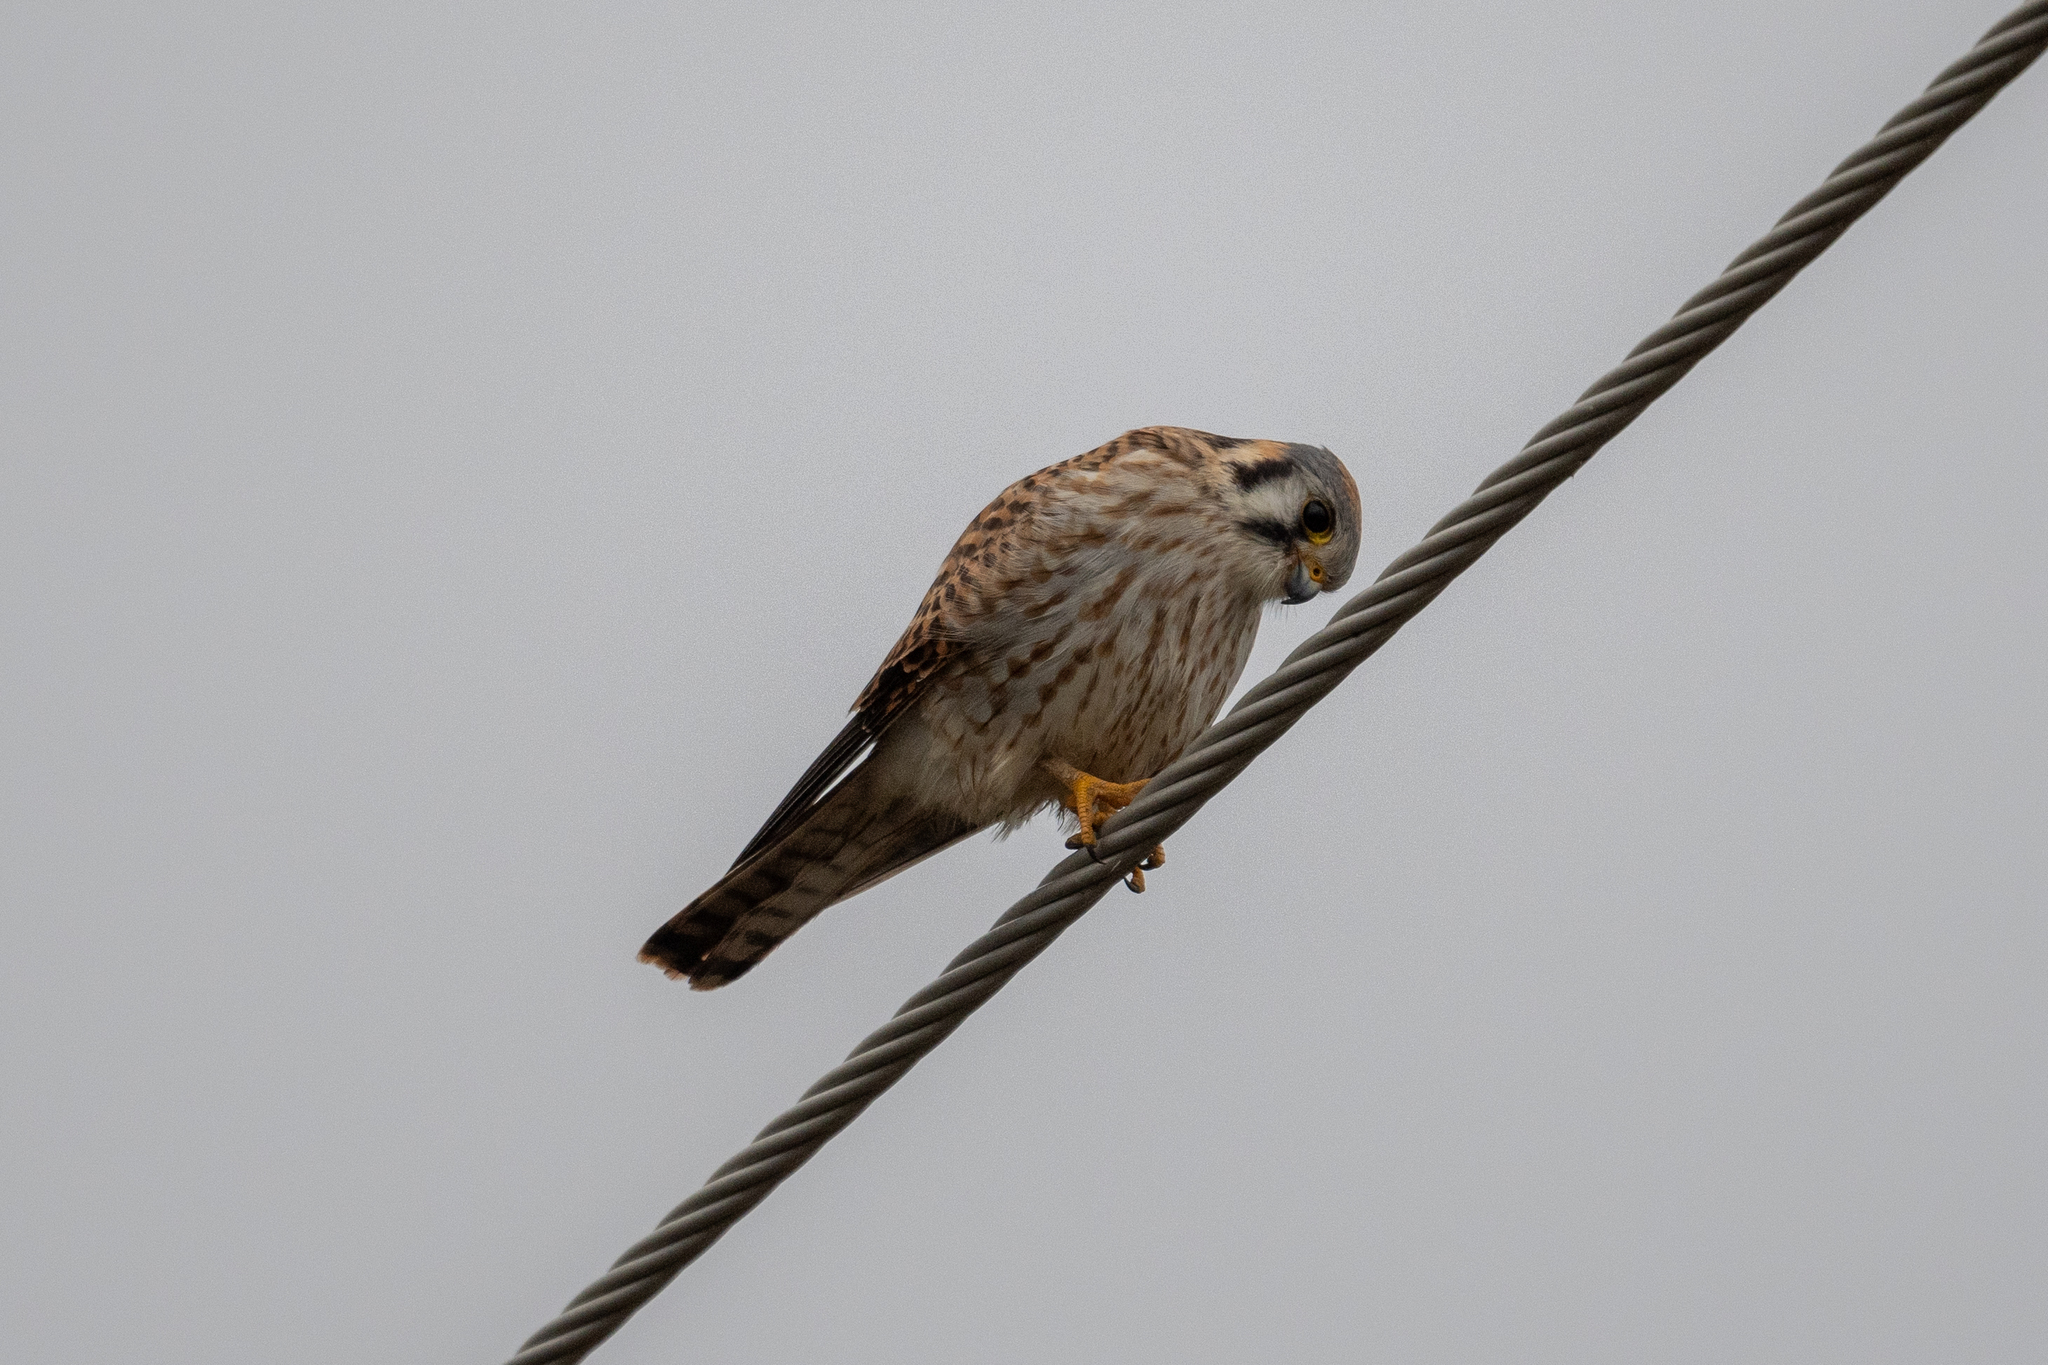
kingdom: Animalia
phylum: Chordata
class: Aves
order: Falconiformes
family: Falconidae
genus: Falco
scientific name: Falco sparverius
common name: American kestrel
